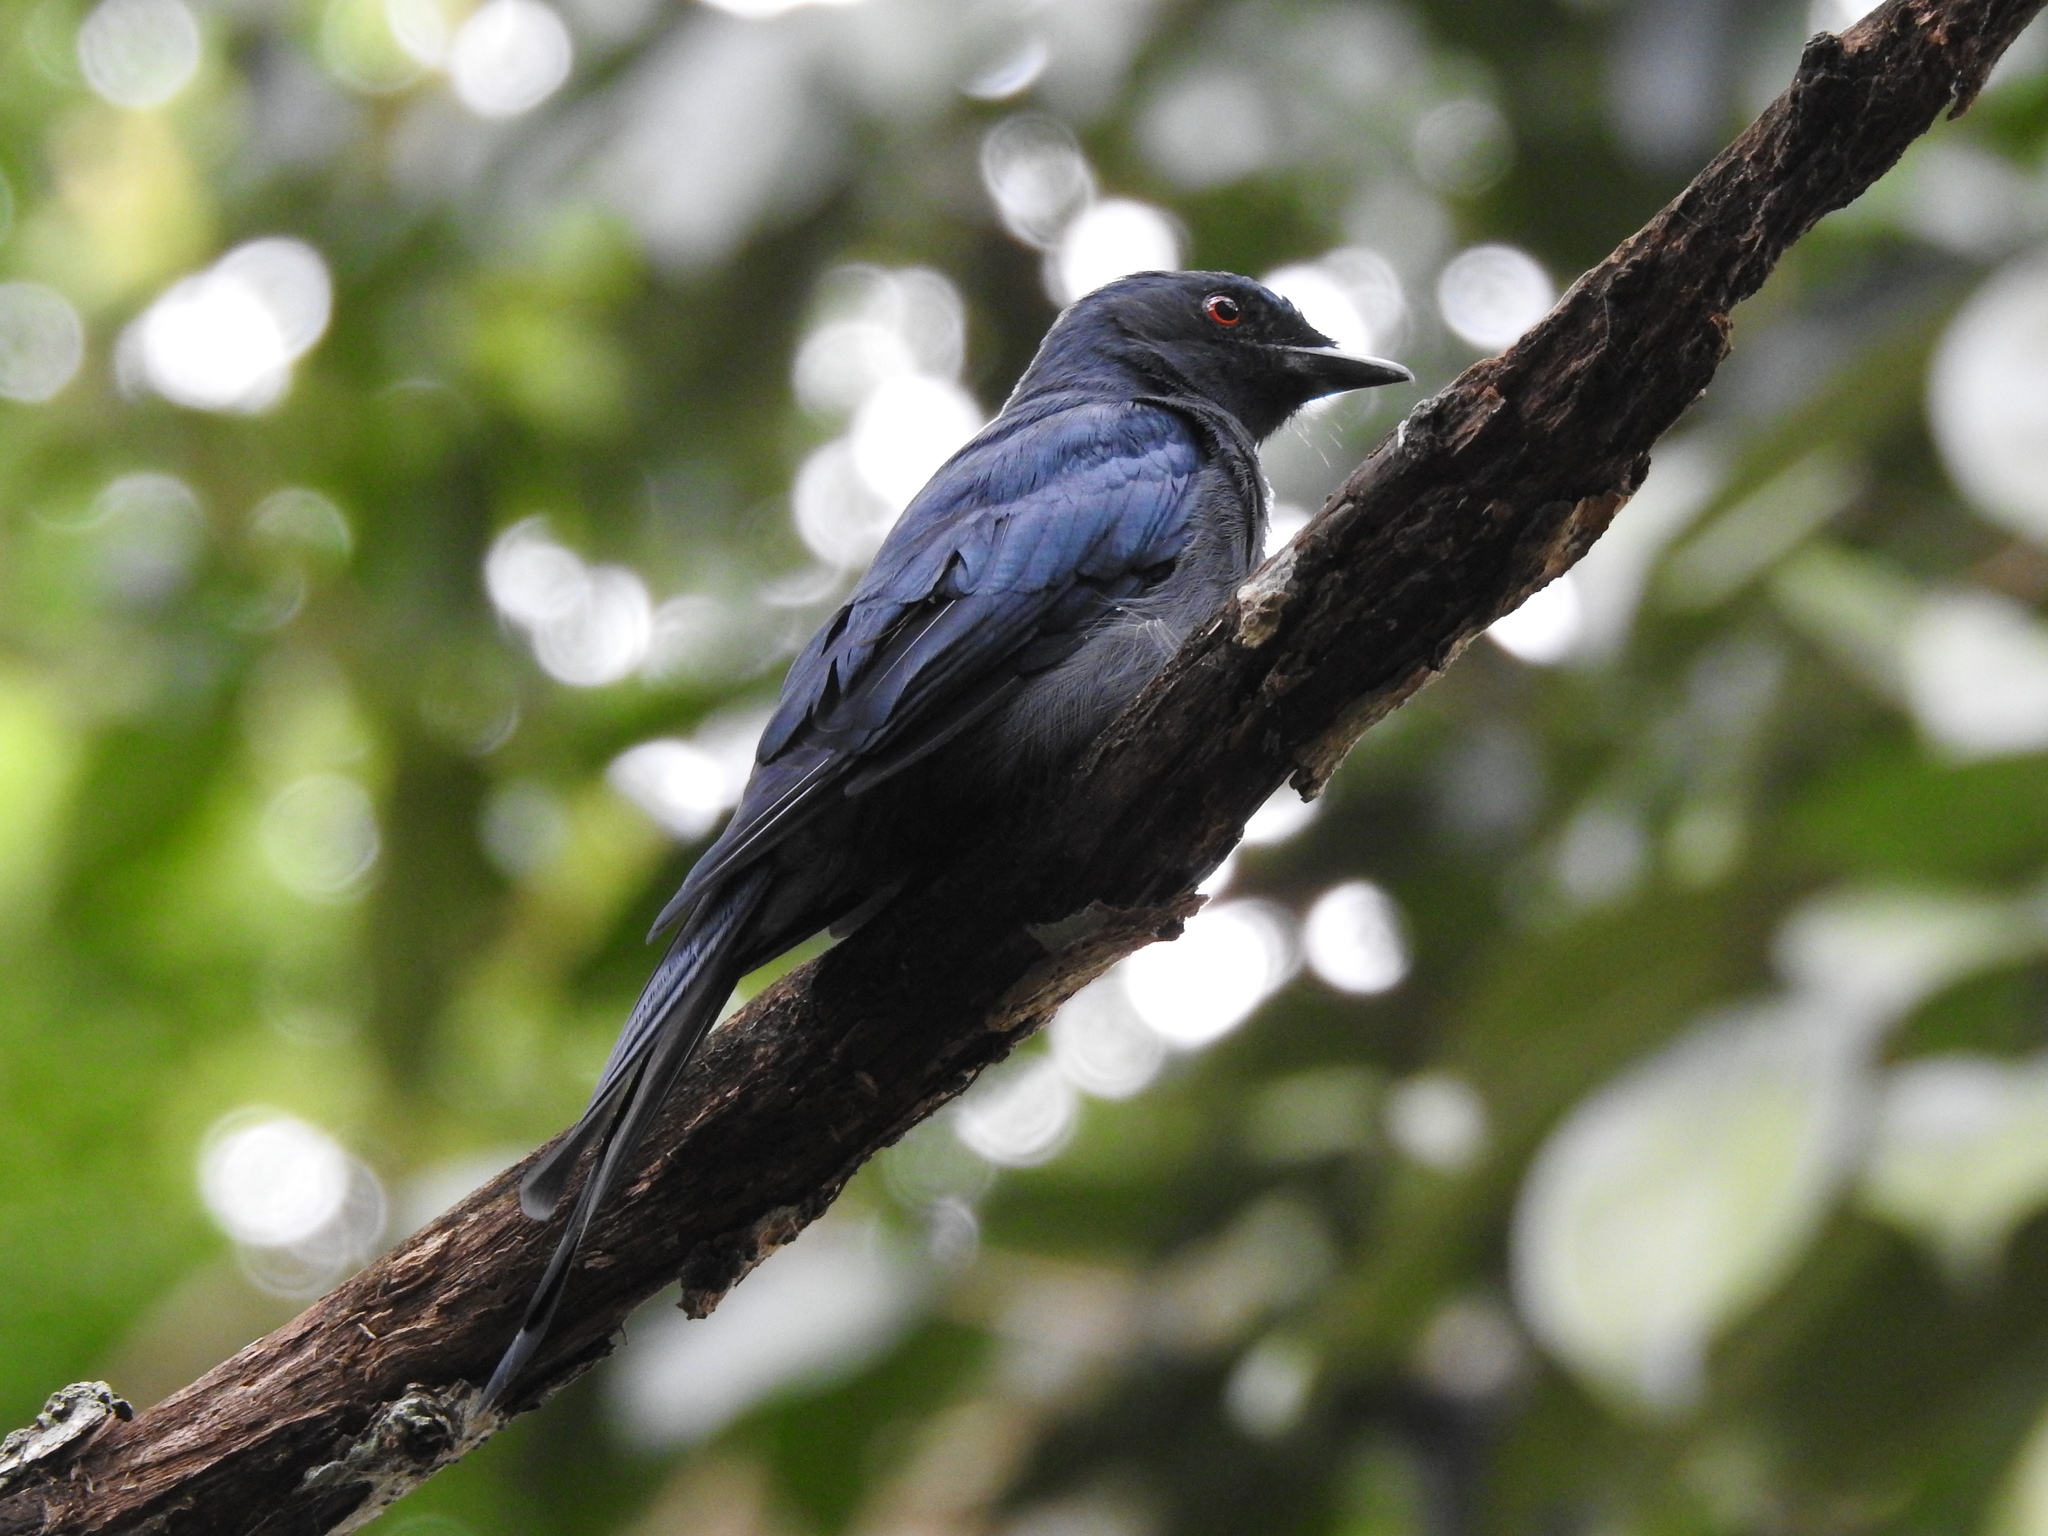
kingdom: Animalia
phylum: Chordata
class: Aves
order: Passeriformes
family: Dicruridae
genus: Dicrurus
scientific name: Dicrurus leucophaeus
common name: Ashy drongo
